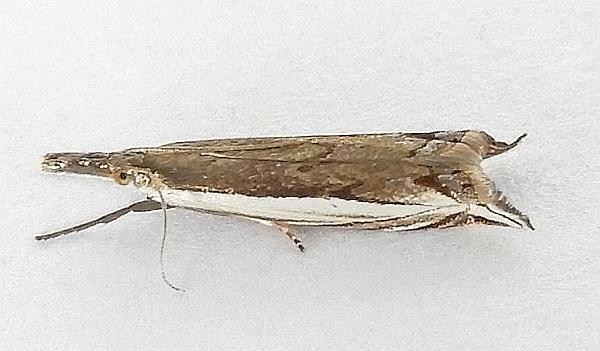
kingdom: Animalia
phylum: Arthropoda
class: Insecta
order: Lepidoptera
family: Crambidae
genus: Raphiptera
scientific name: Raphiptera argillaceellus
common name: Diminutive grass-veneer
